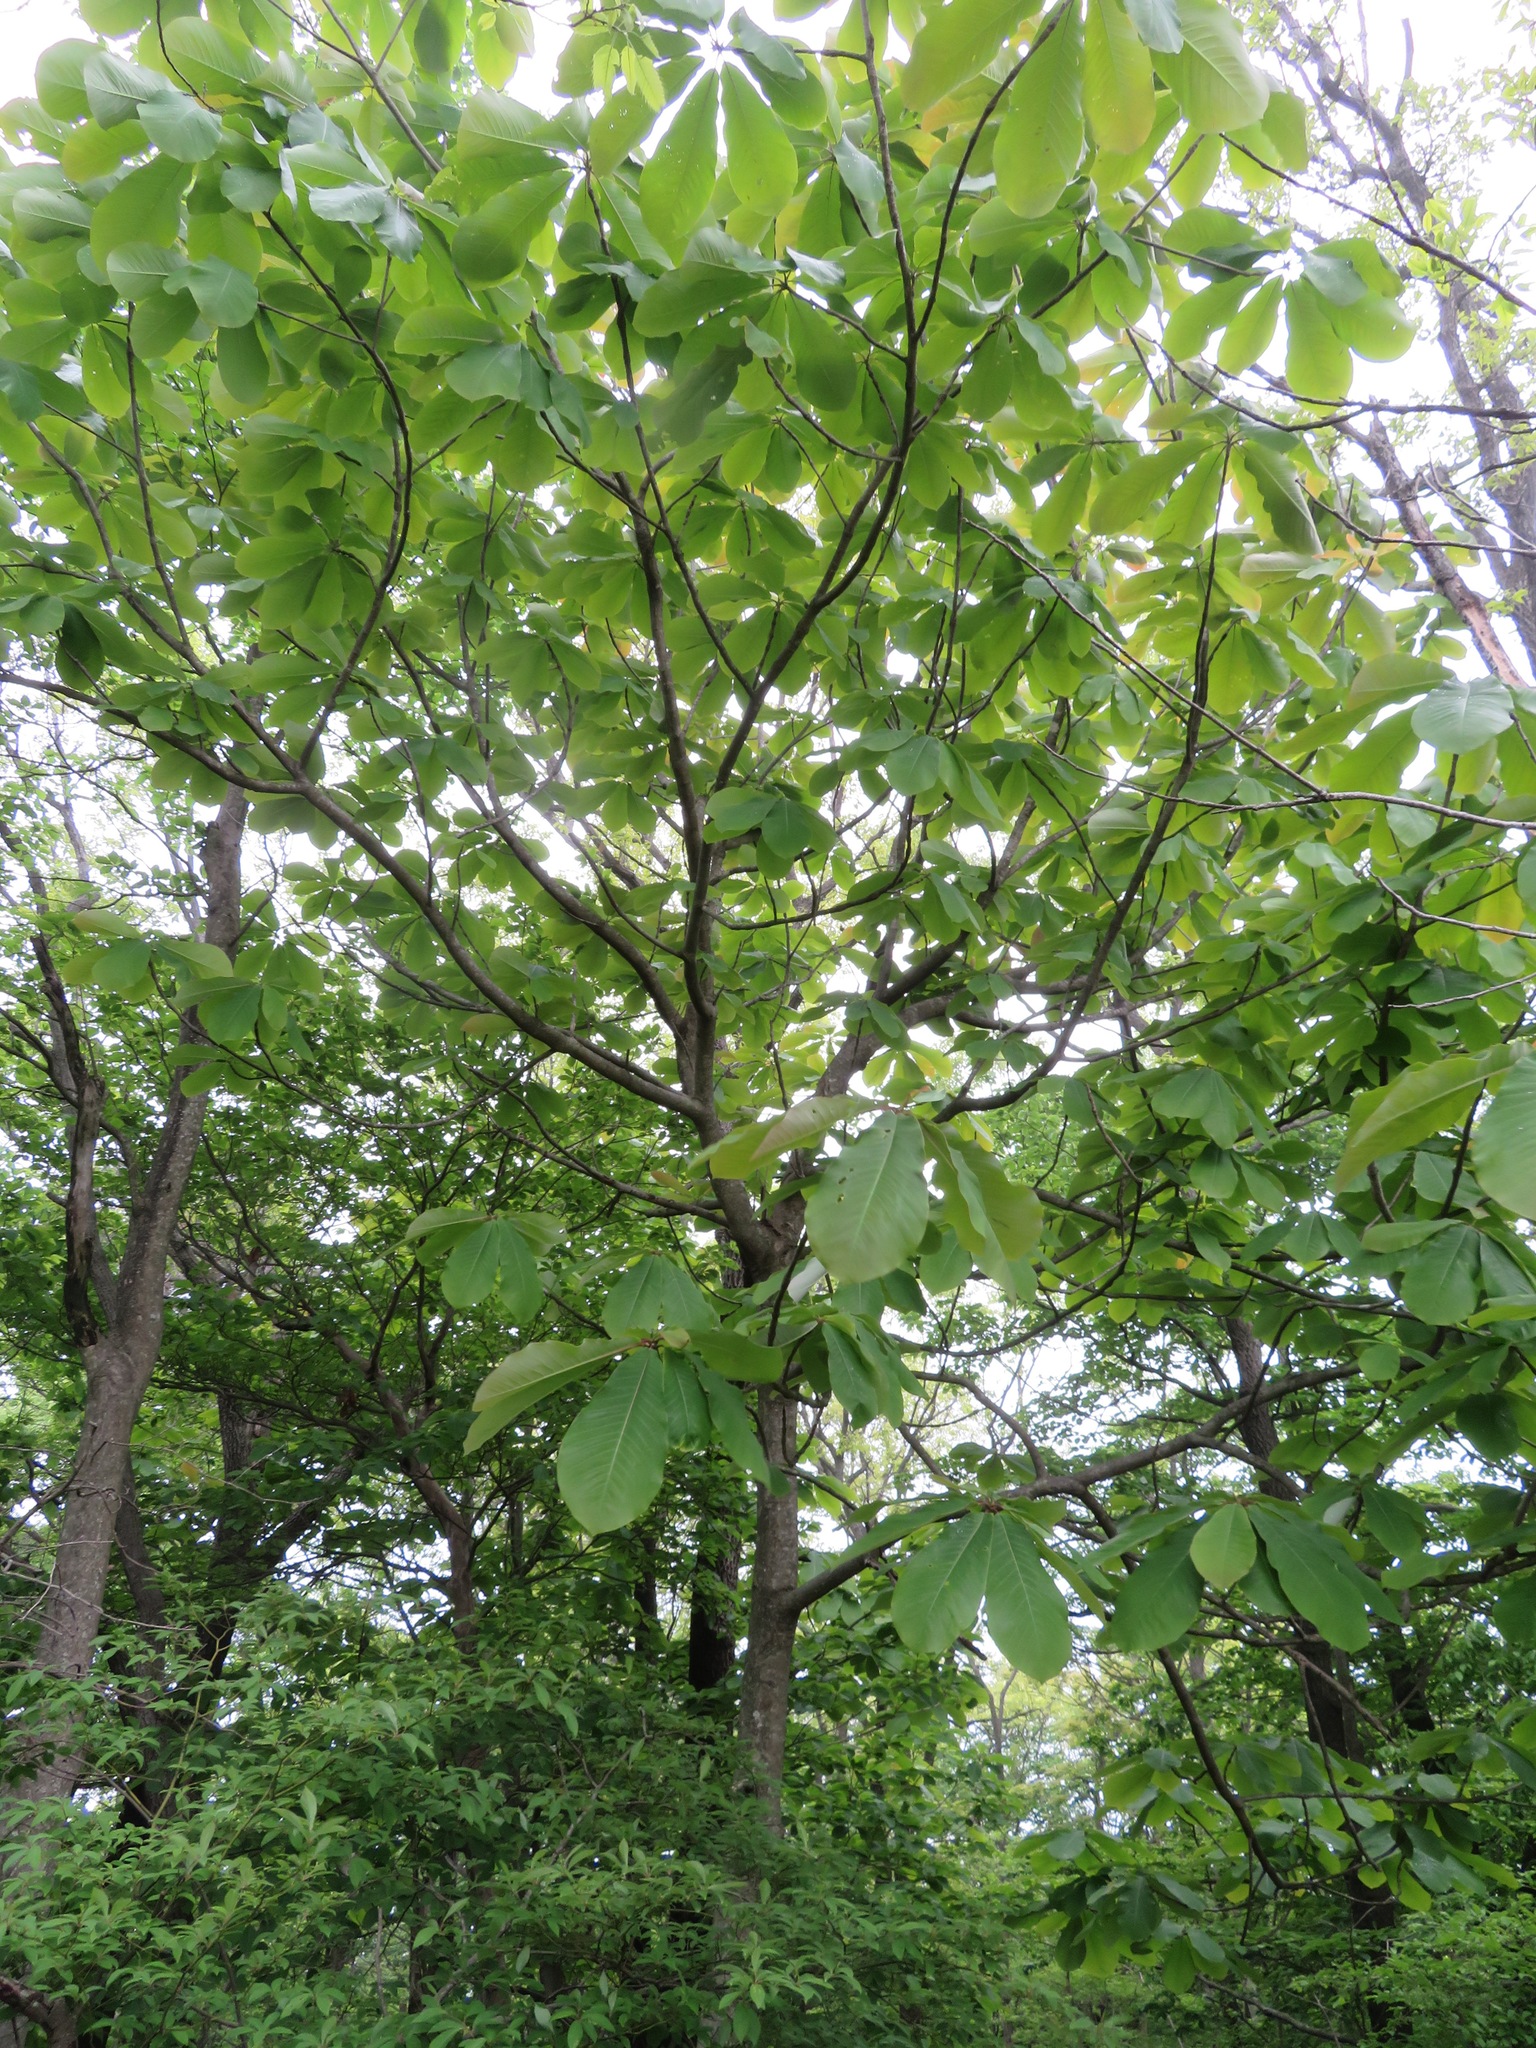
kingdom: Plantae
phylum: Tracheophyta
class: Magnoliopsida
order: Magnoliales
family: Magnoliaceae
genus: Magnolia
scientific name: Magnolia obovata
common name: Japanese whitebark magnolia
